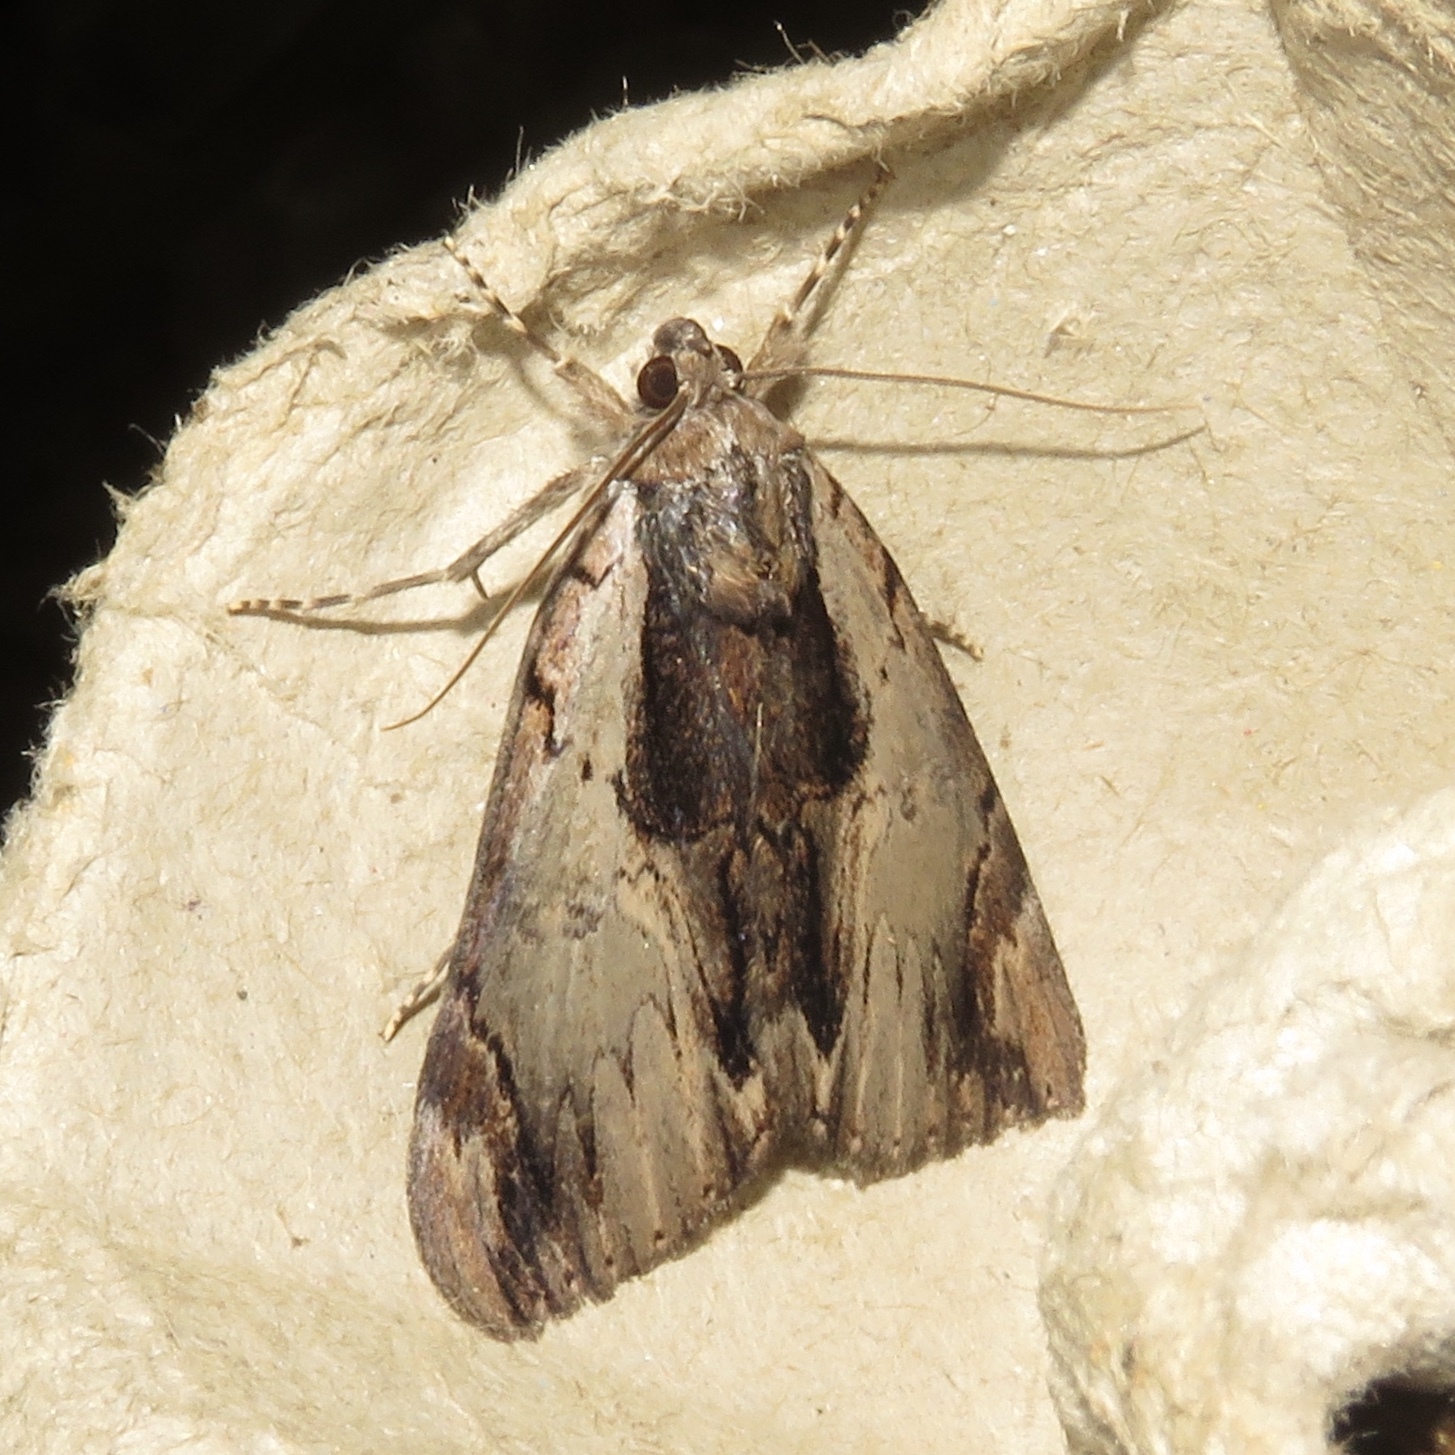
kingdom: Animalia
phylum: Arthropoda
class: Insecta
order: Lepidoptera
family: Erebidae
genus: Catocala
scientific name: Catocala ultronia
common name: Ultronia underwing
